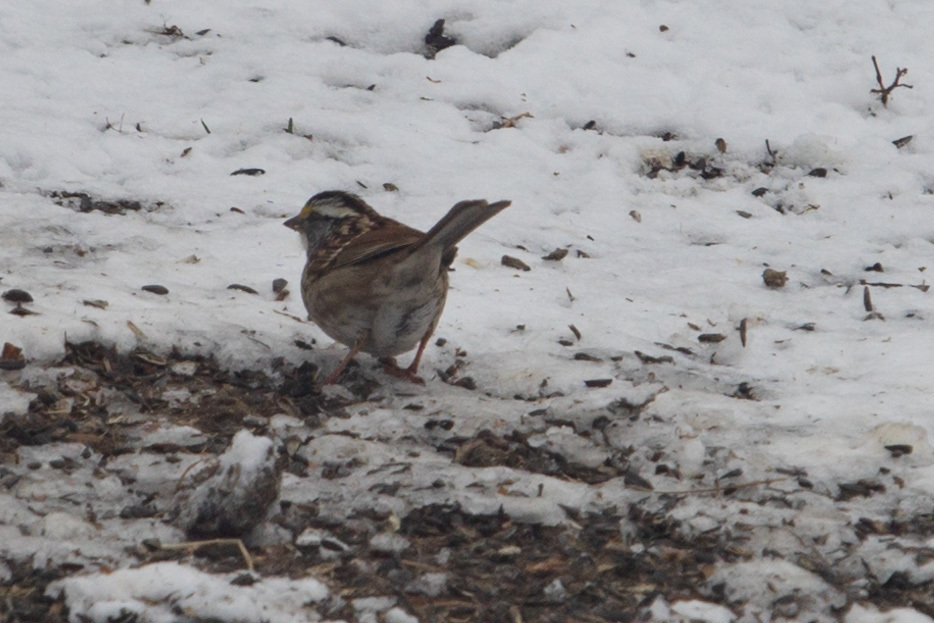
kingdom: Animalia
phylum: Chordata
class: Aves
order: Passeriformes
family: Passerellidae
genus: Zonotrichia
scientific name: Zonotrichia albicollis
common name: White-throated sparrow
